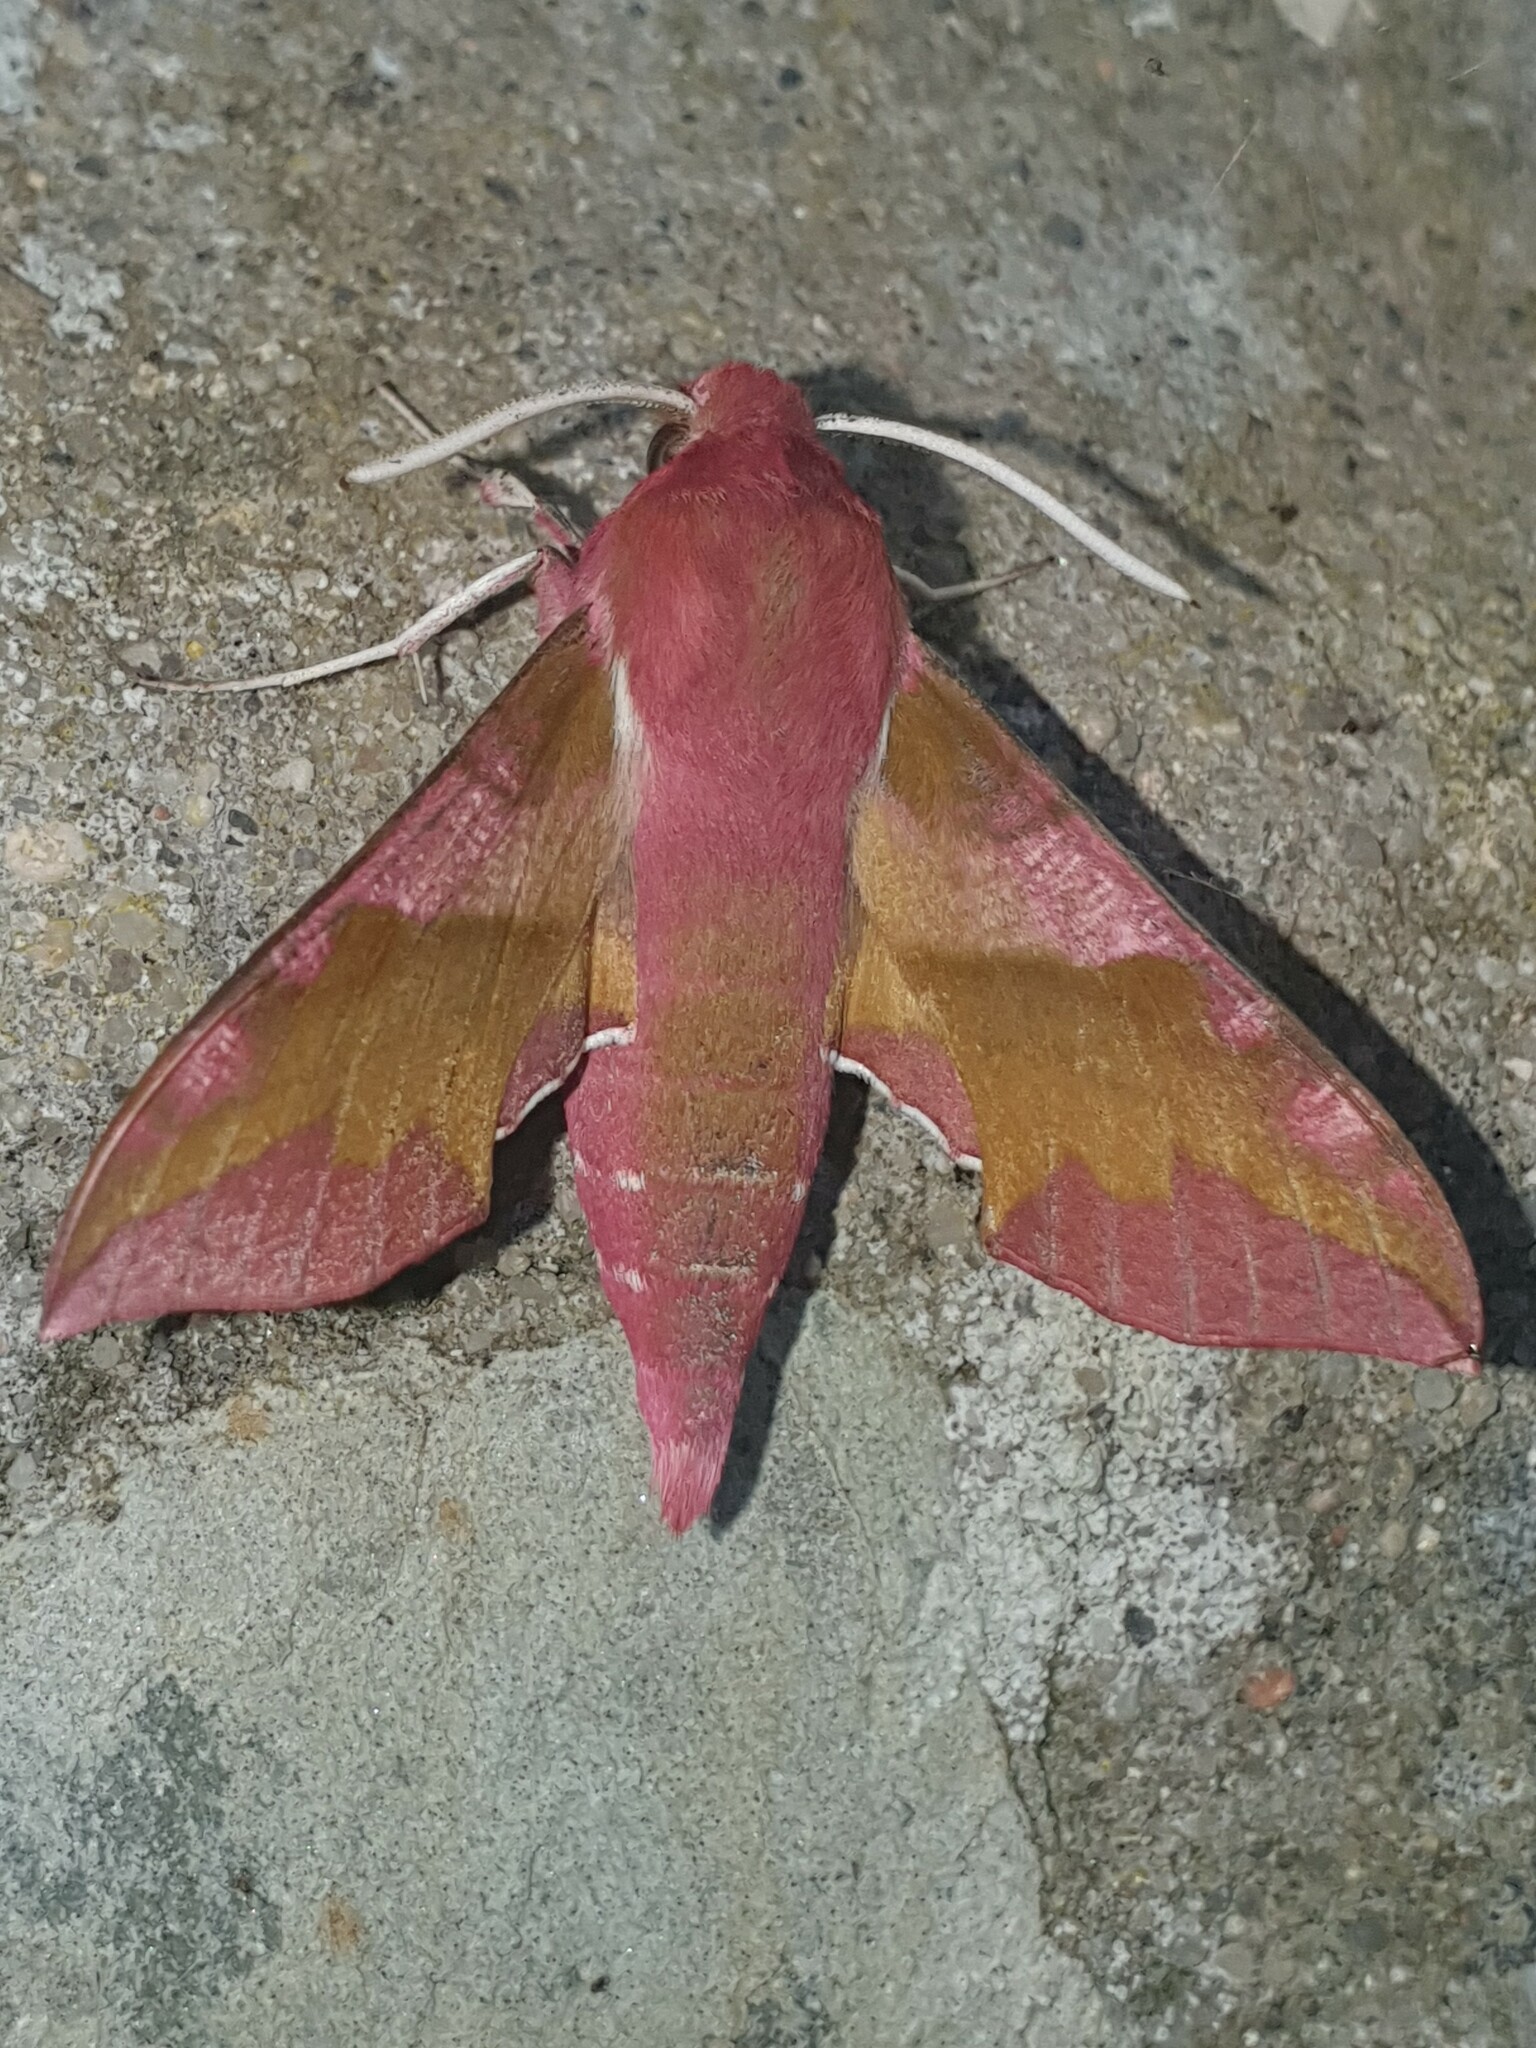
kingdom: Animalia
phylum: Arthropoda
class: Insecta
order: Lepidoptera
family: Sphingidae
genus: Deilephila
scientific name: Deilephila porcellus
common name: Small elephant hawk-moth
